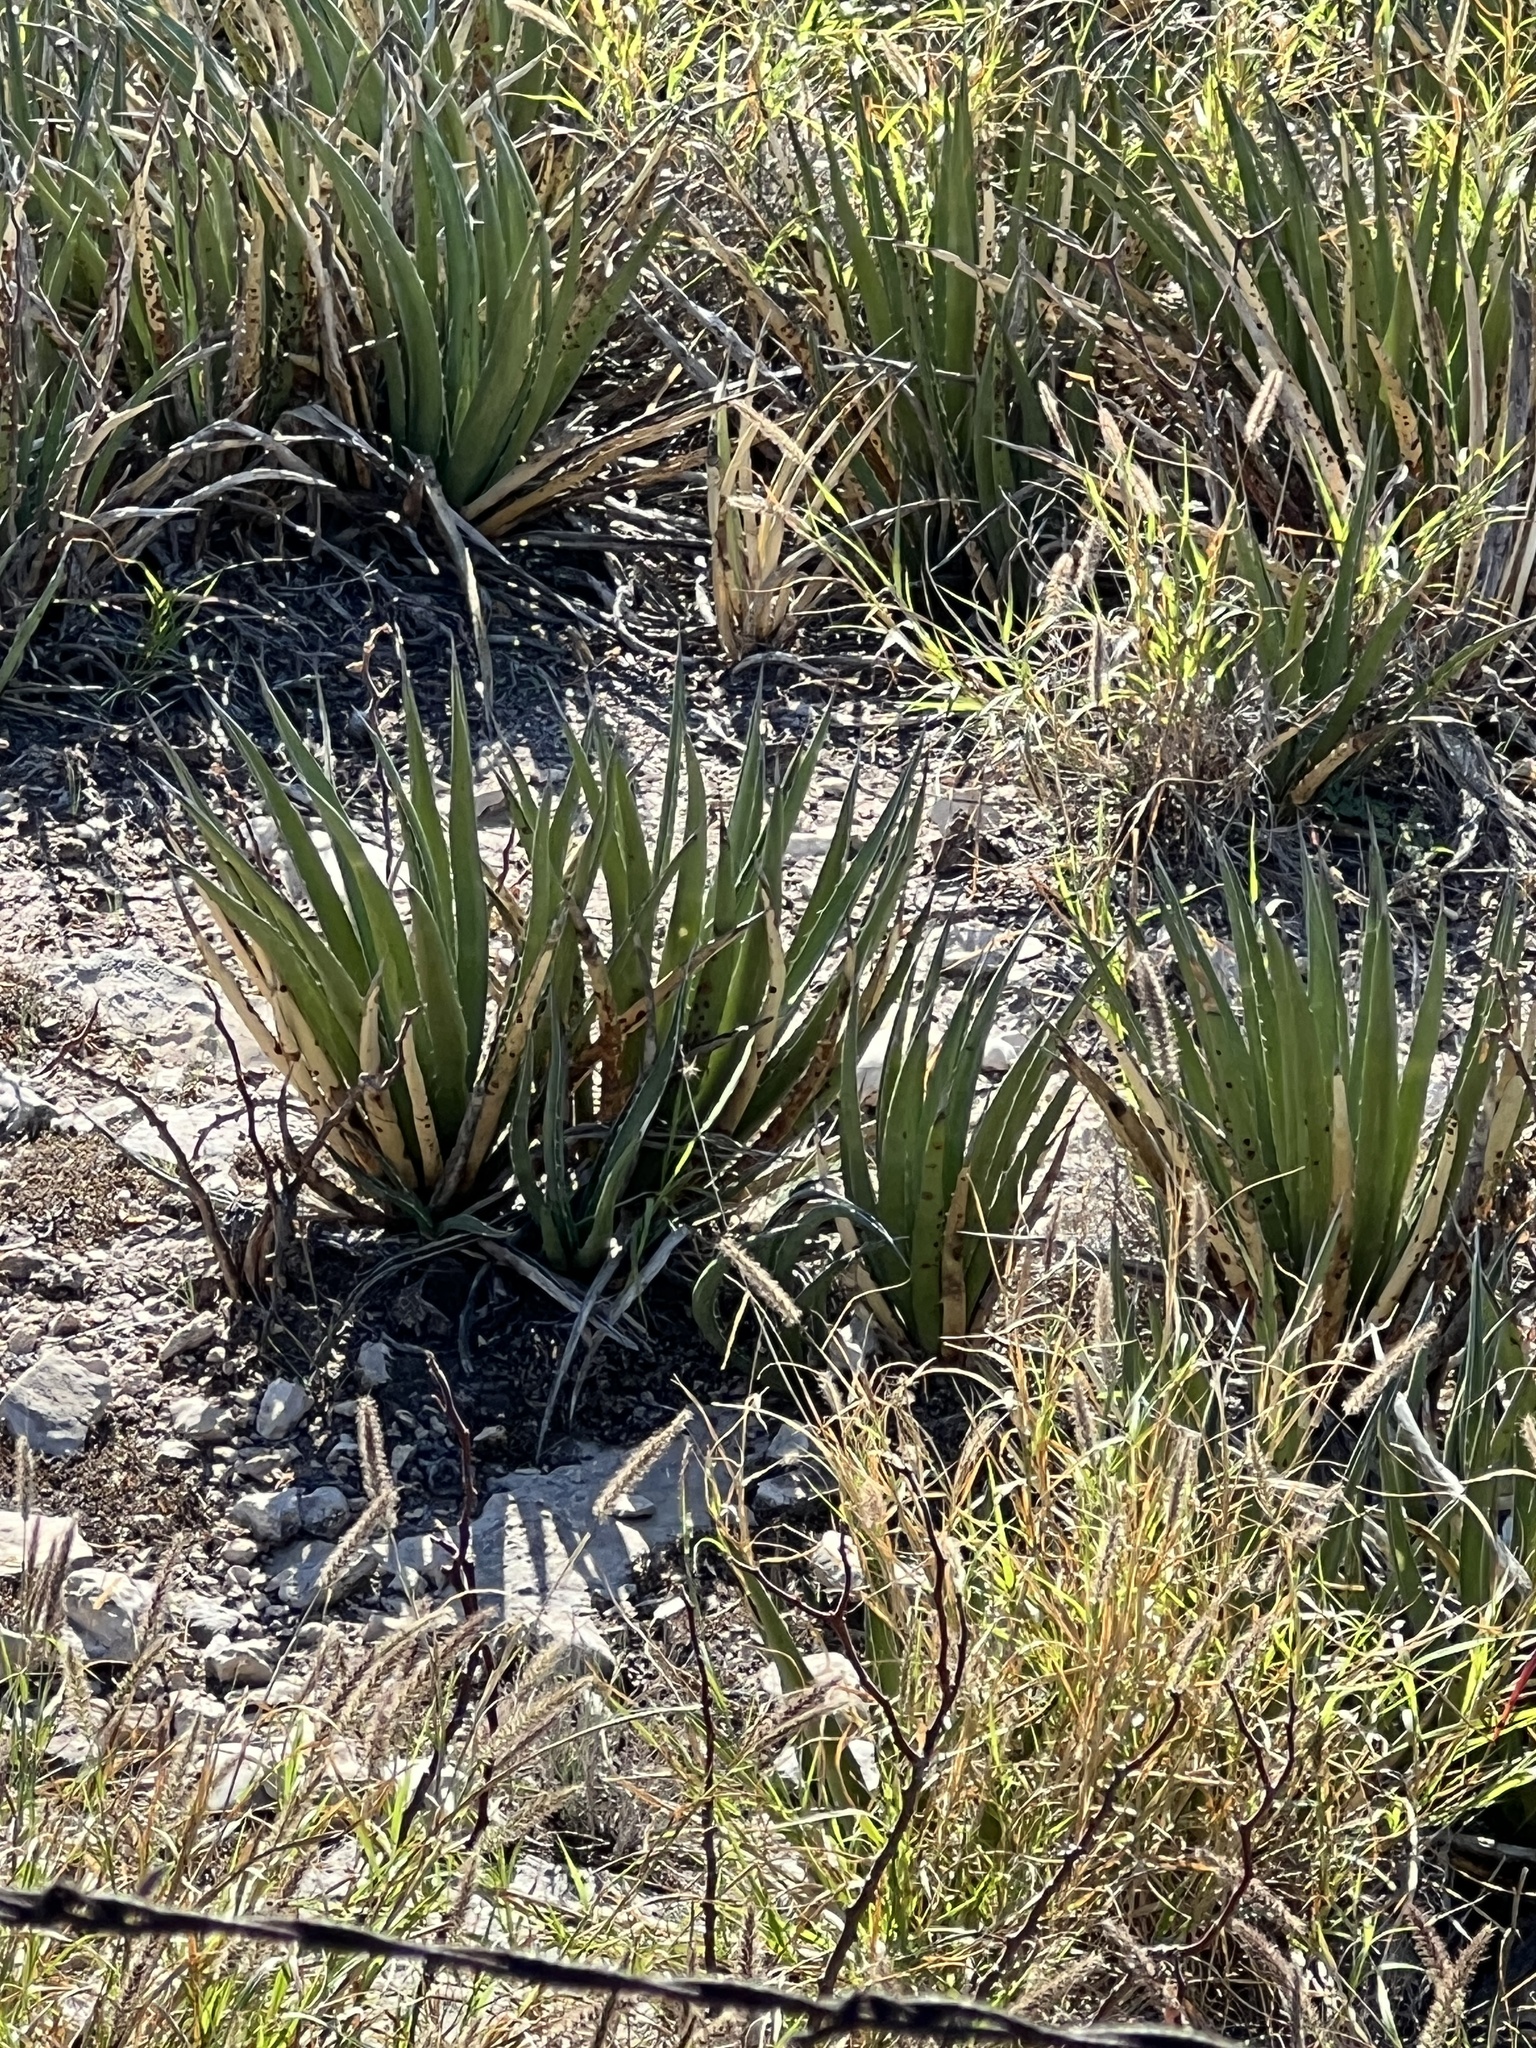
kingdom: Plantae
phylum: Tracheophyta
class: Liliopsida
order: Asparagales
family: Asparagaceae
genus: Agave
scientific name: Agave lechuguilla
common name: Lecheguilla agave
